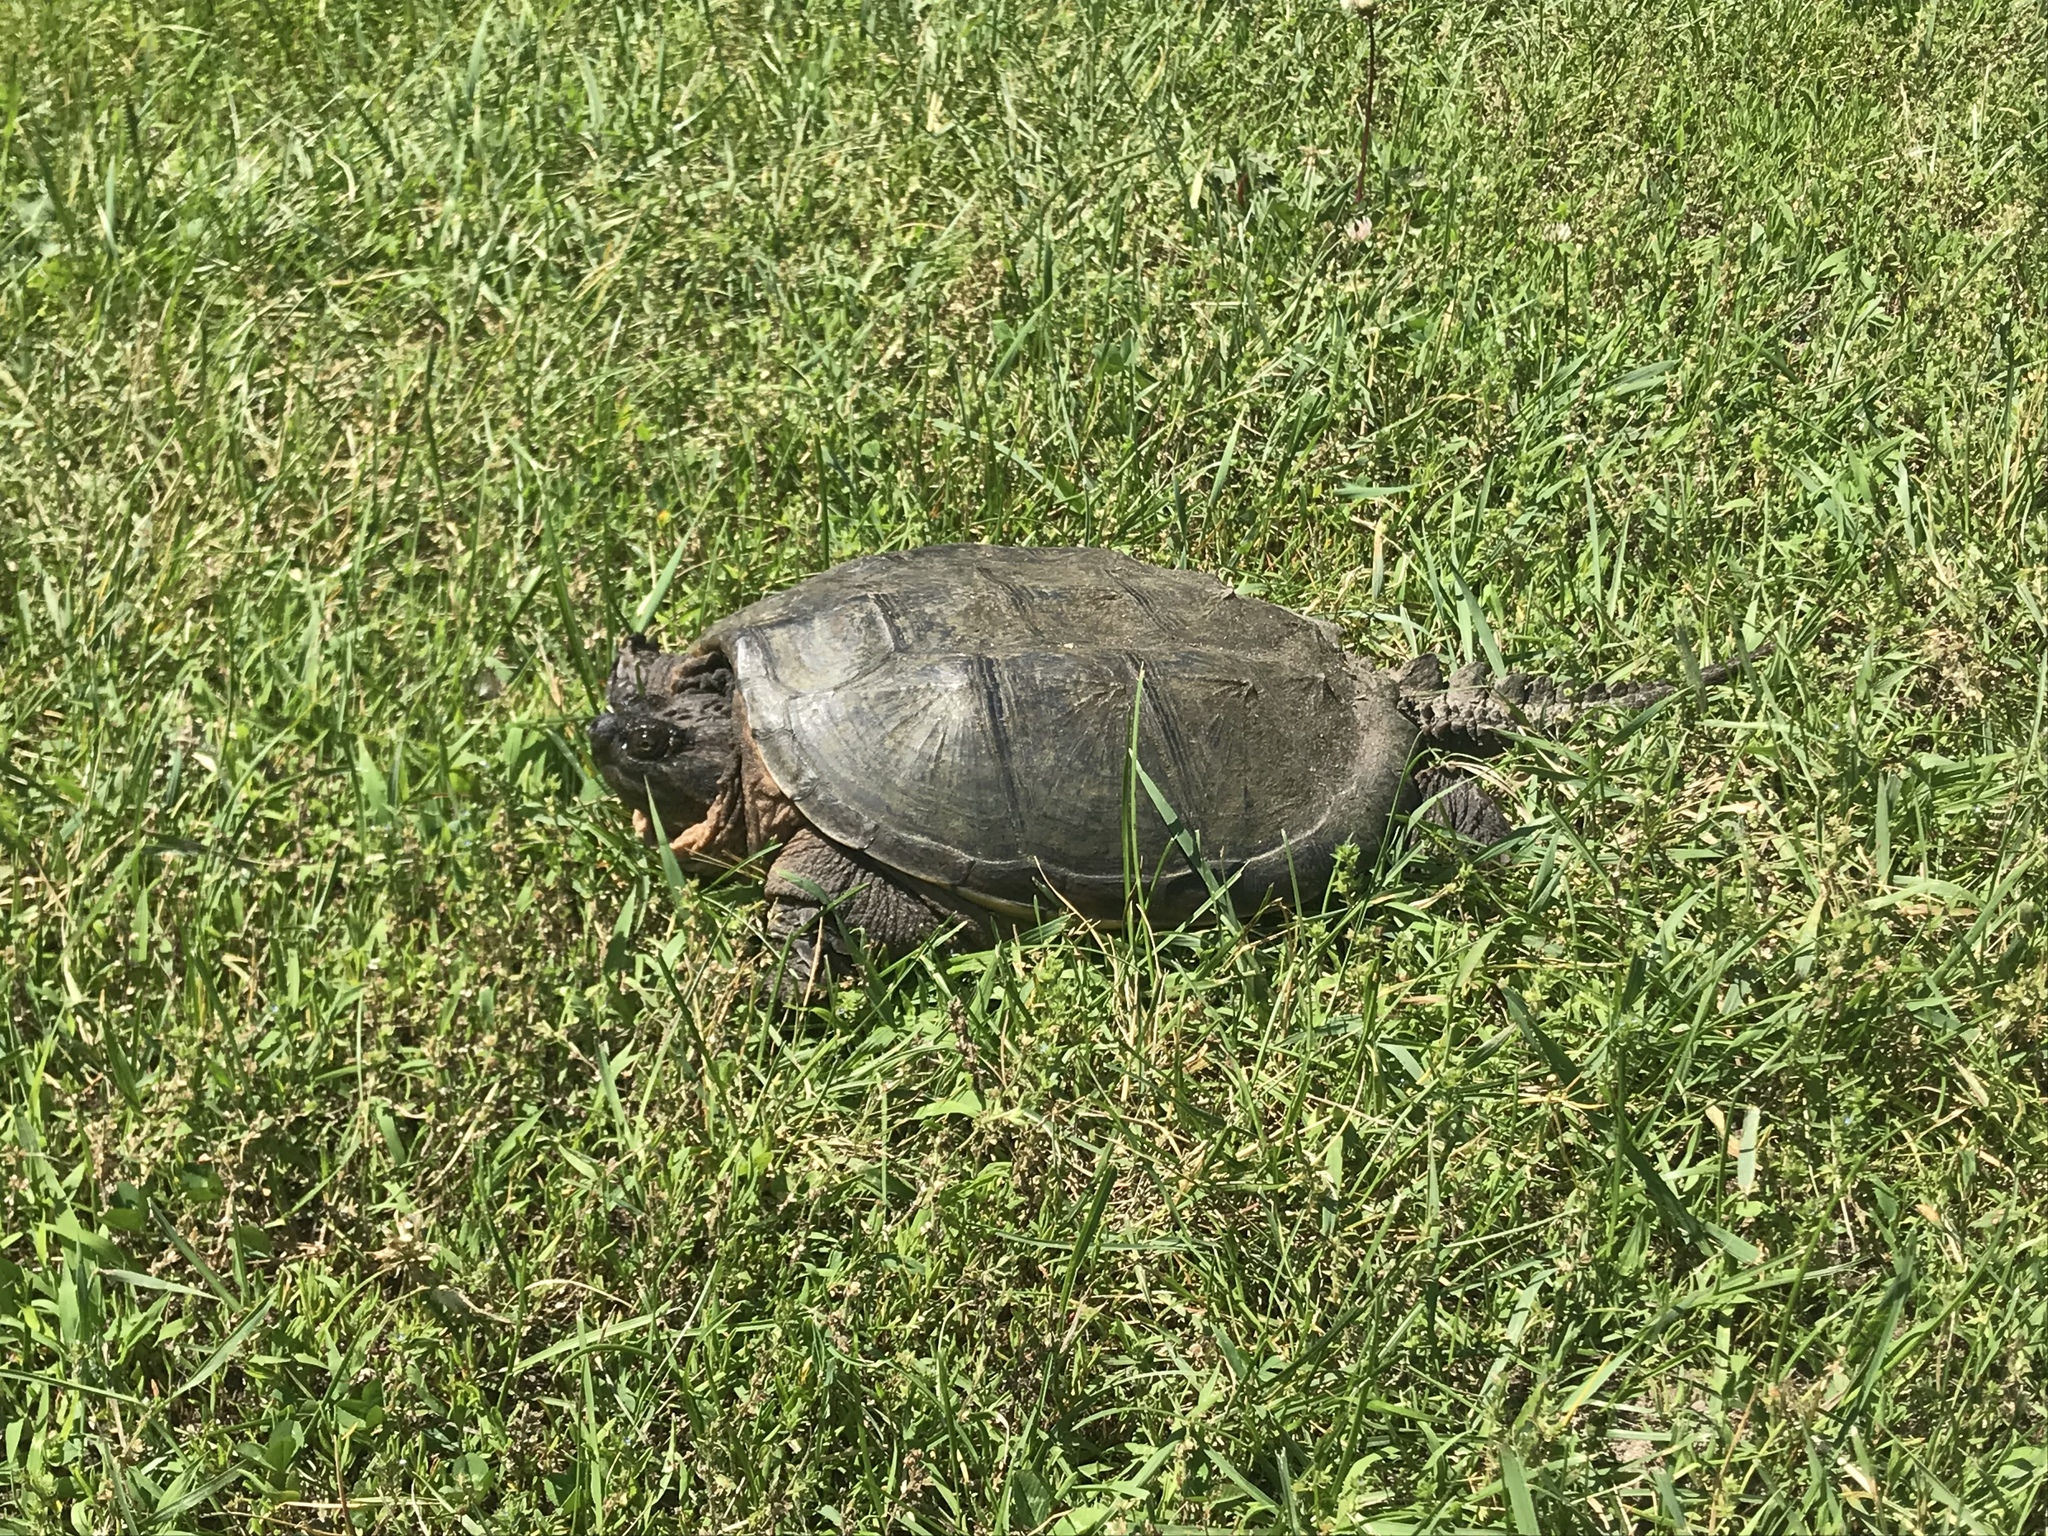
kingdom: Animalia
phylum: Chordata
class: Testudines
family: Chelydridae
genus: Chelydra
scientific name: Chelydra serpentina
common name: Common snapping turtle
